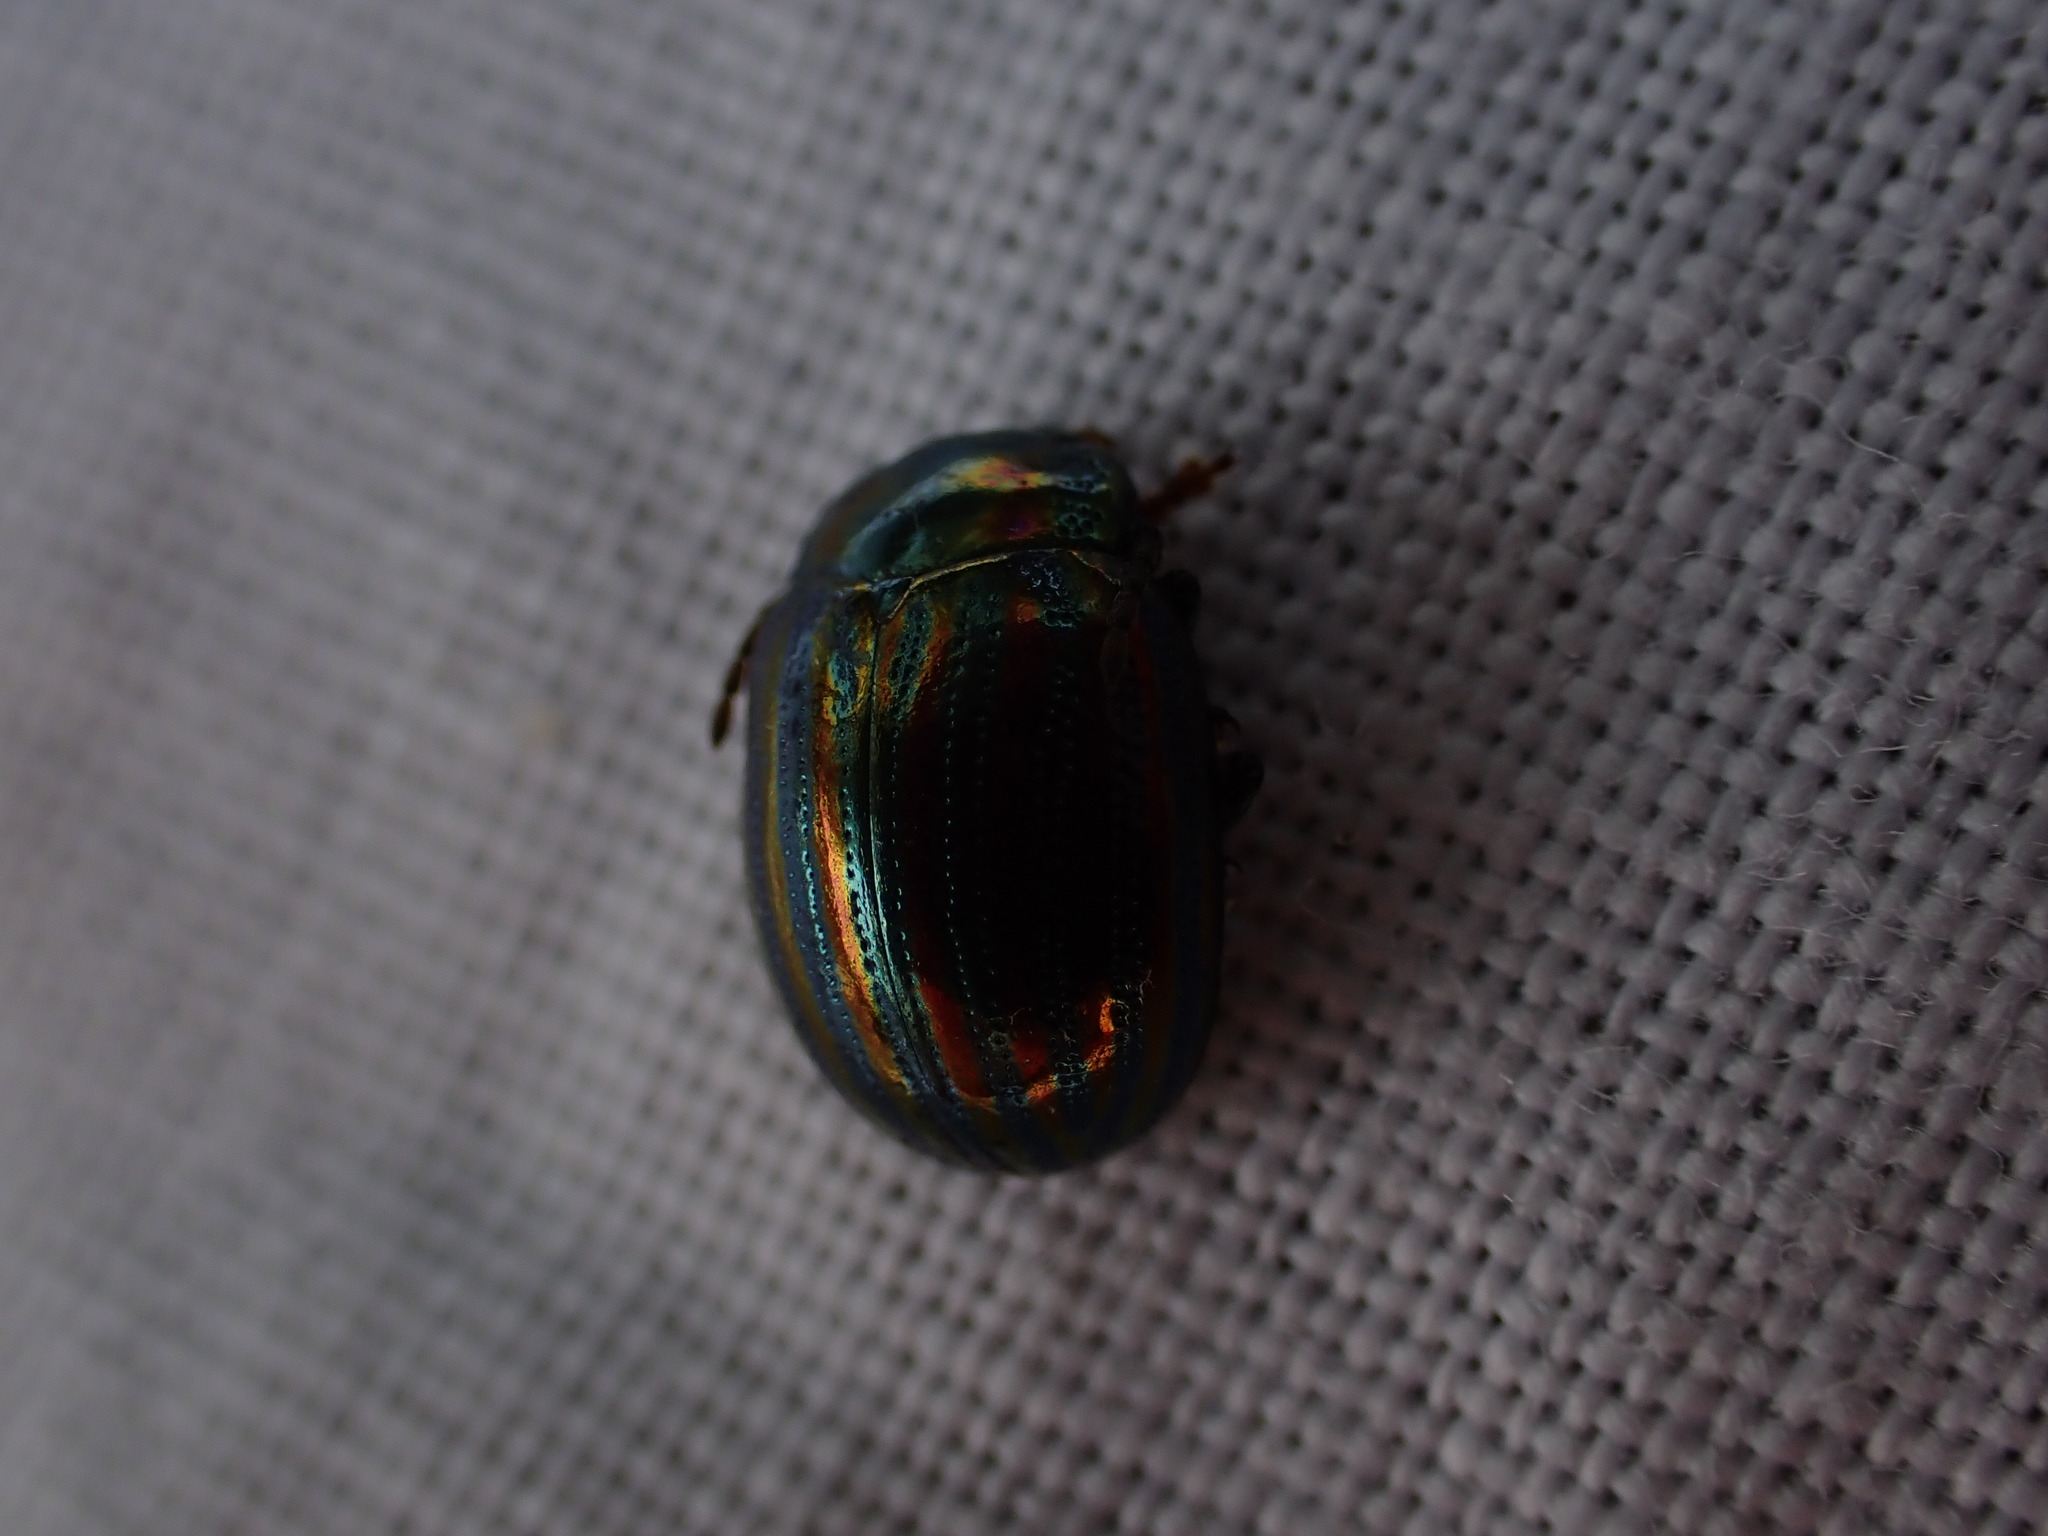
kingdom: Animalia
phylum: Arthropoda
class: Insecta
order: Coleoptera
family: Chrysomelidae
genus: Chrysolina
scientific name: Chrysolina americana
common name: Rosemary beetle
